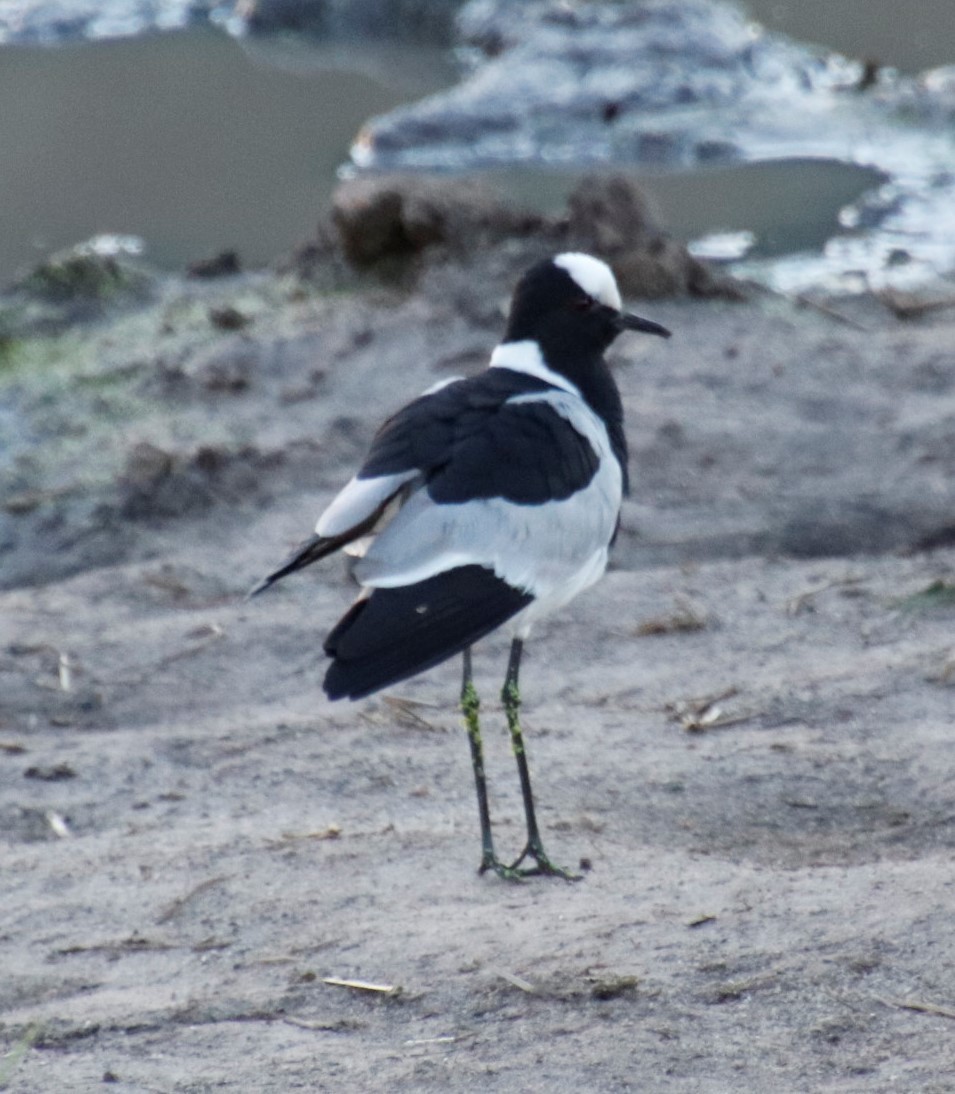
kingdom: Animalia
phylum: Chordata
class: Aves
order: Charadriiformes
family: Charadriidae
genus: Vanellus
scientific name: Vanellus armatus
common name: Blacksmith lapwing
